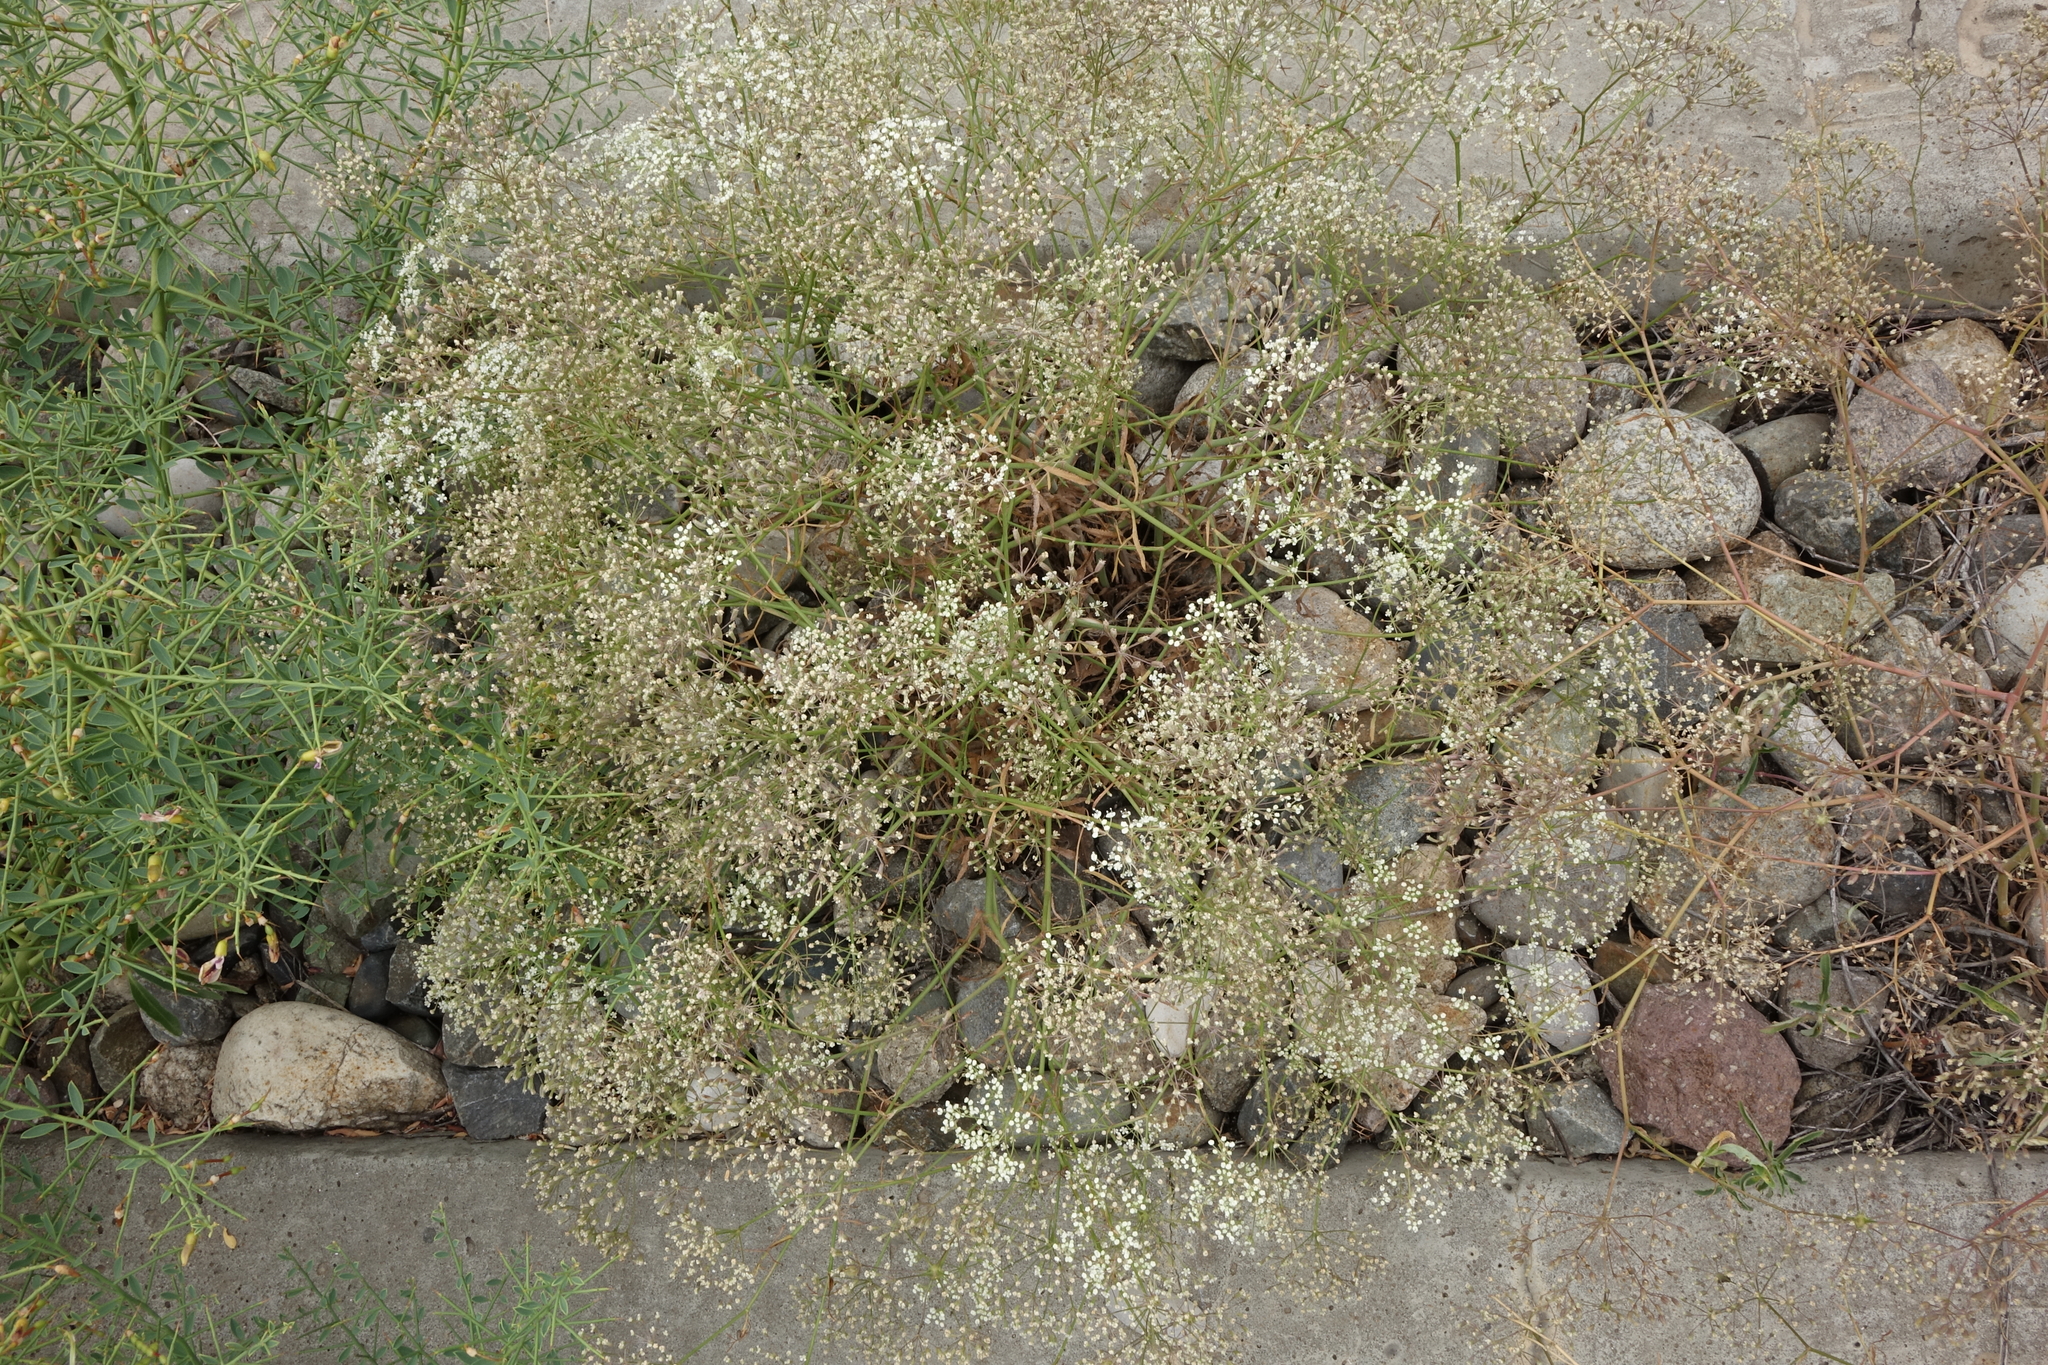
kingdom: Plantae
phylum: Tracheophyta
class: Magnoliopsida
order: Caryophyllales
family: Caryophyllaceae
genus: Gypsophila
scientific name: Gypsophila paniculata
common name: Baby's-breath
